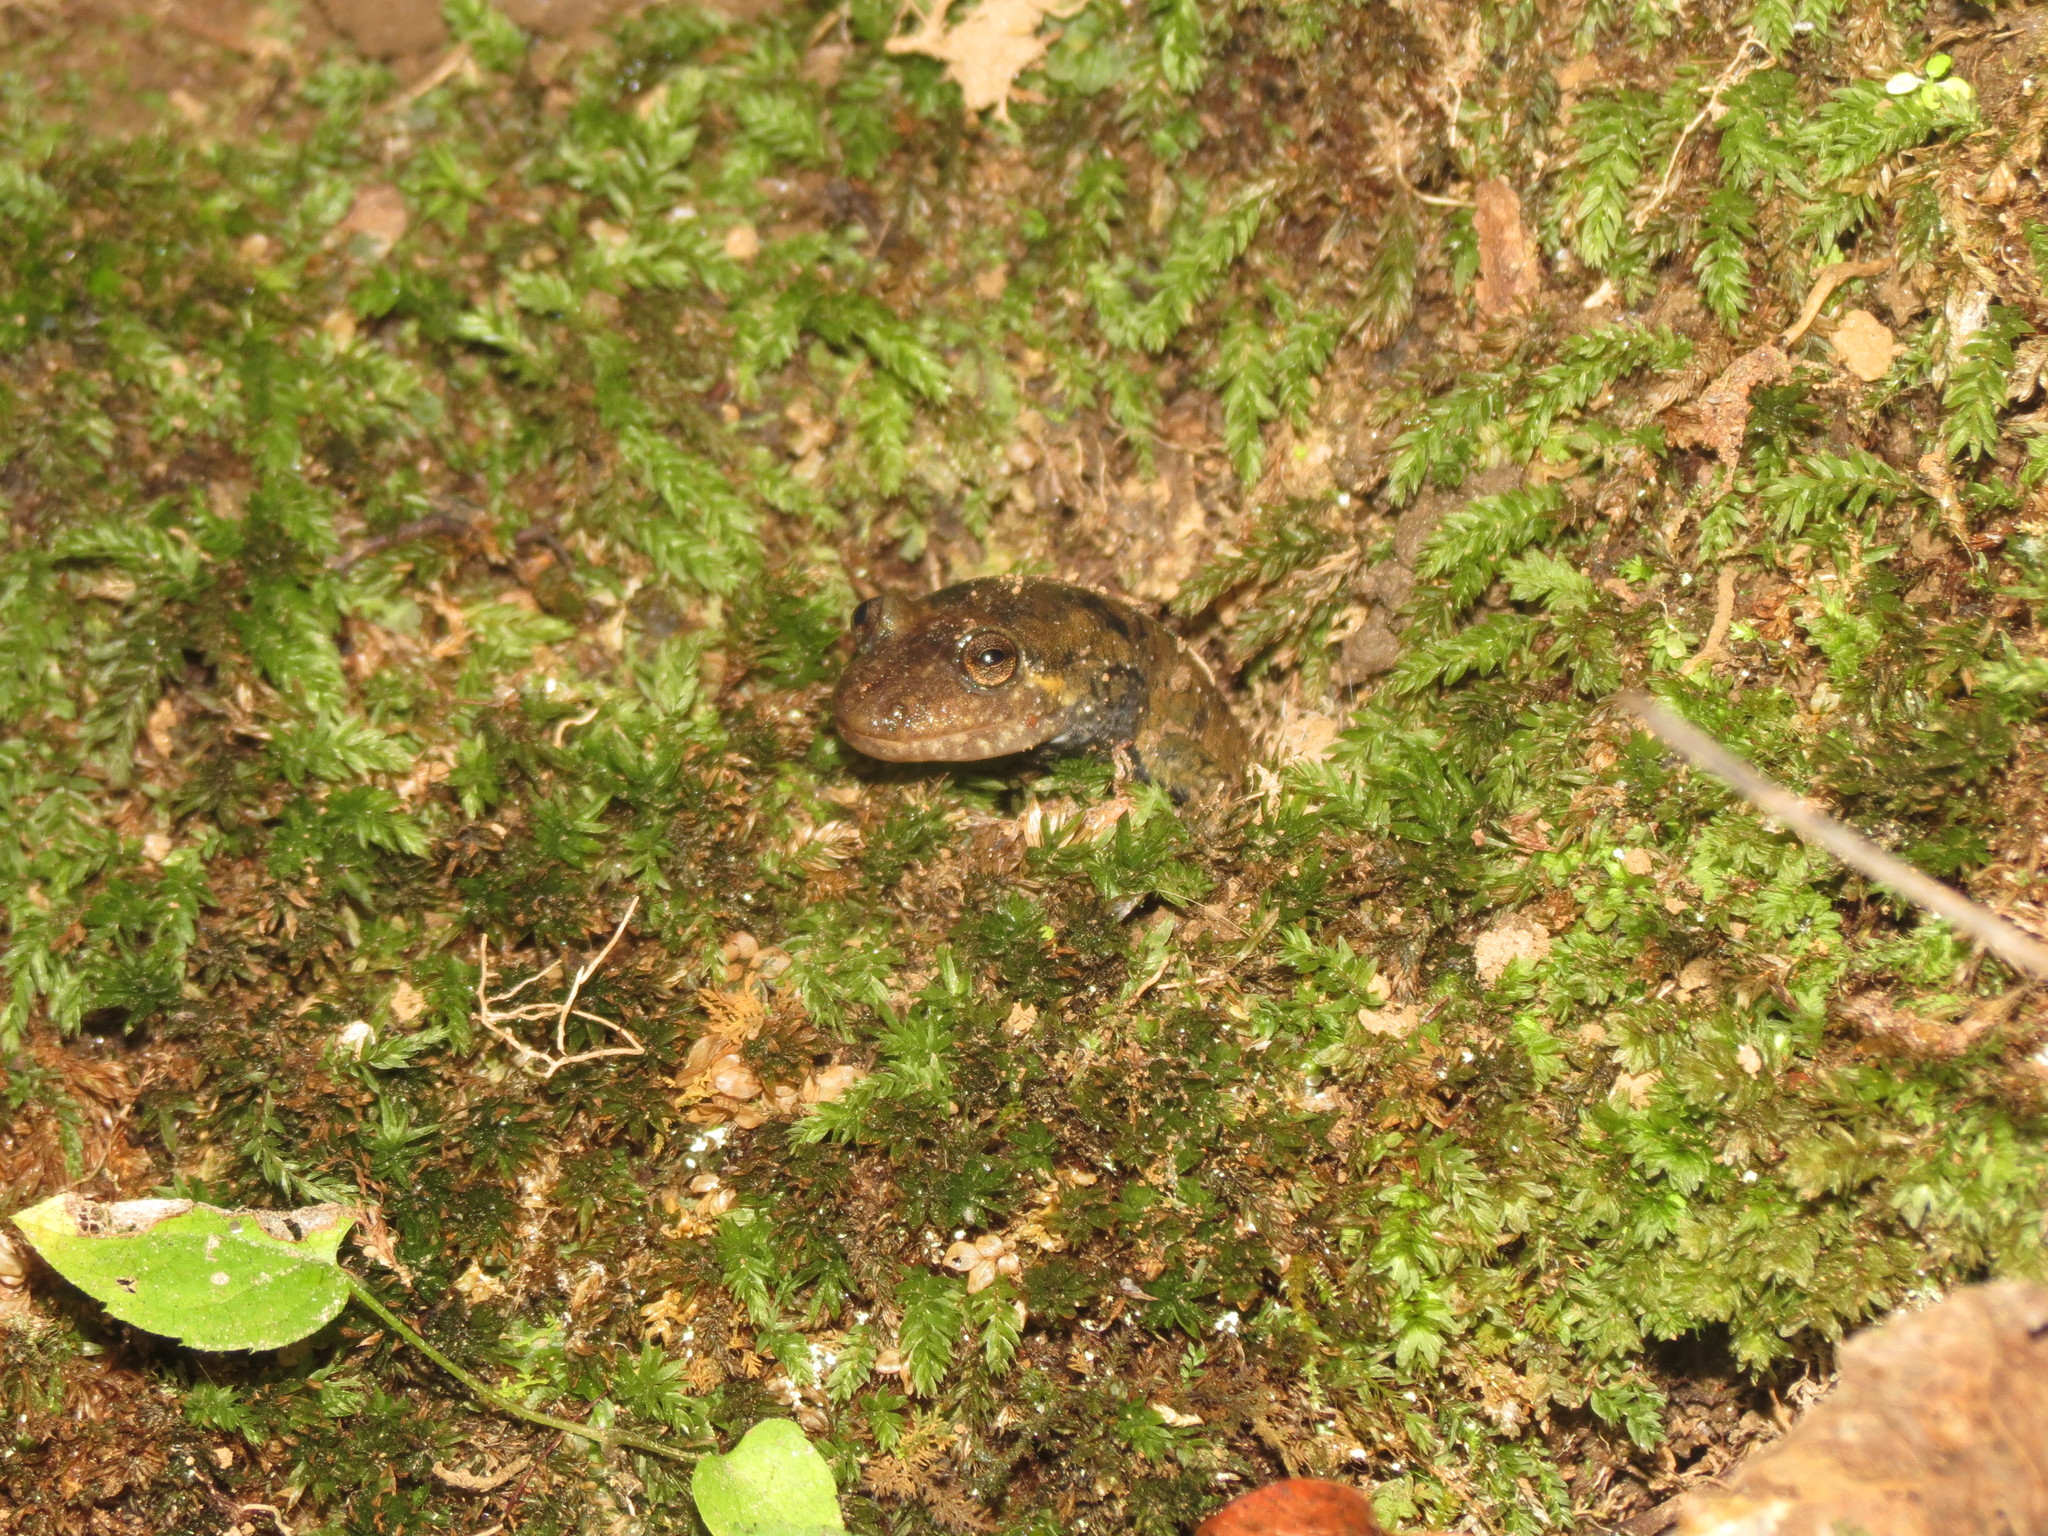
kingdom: Animalia
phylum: Chordata
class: Amphibia
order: Caudata
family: Plethodontidae
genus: Desmognathus
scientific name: Desmognathus
